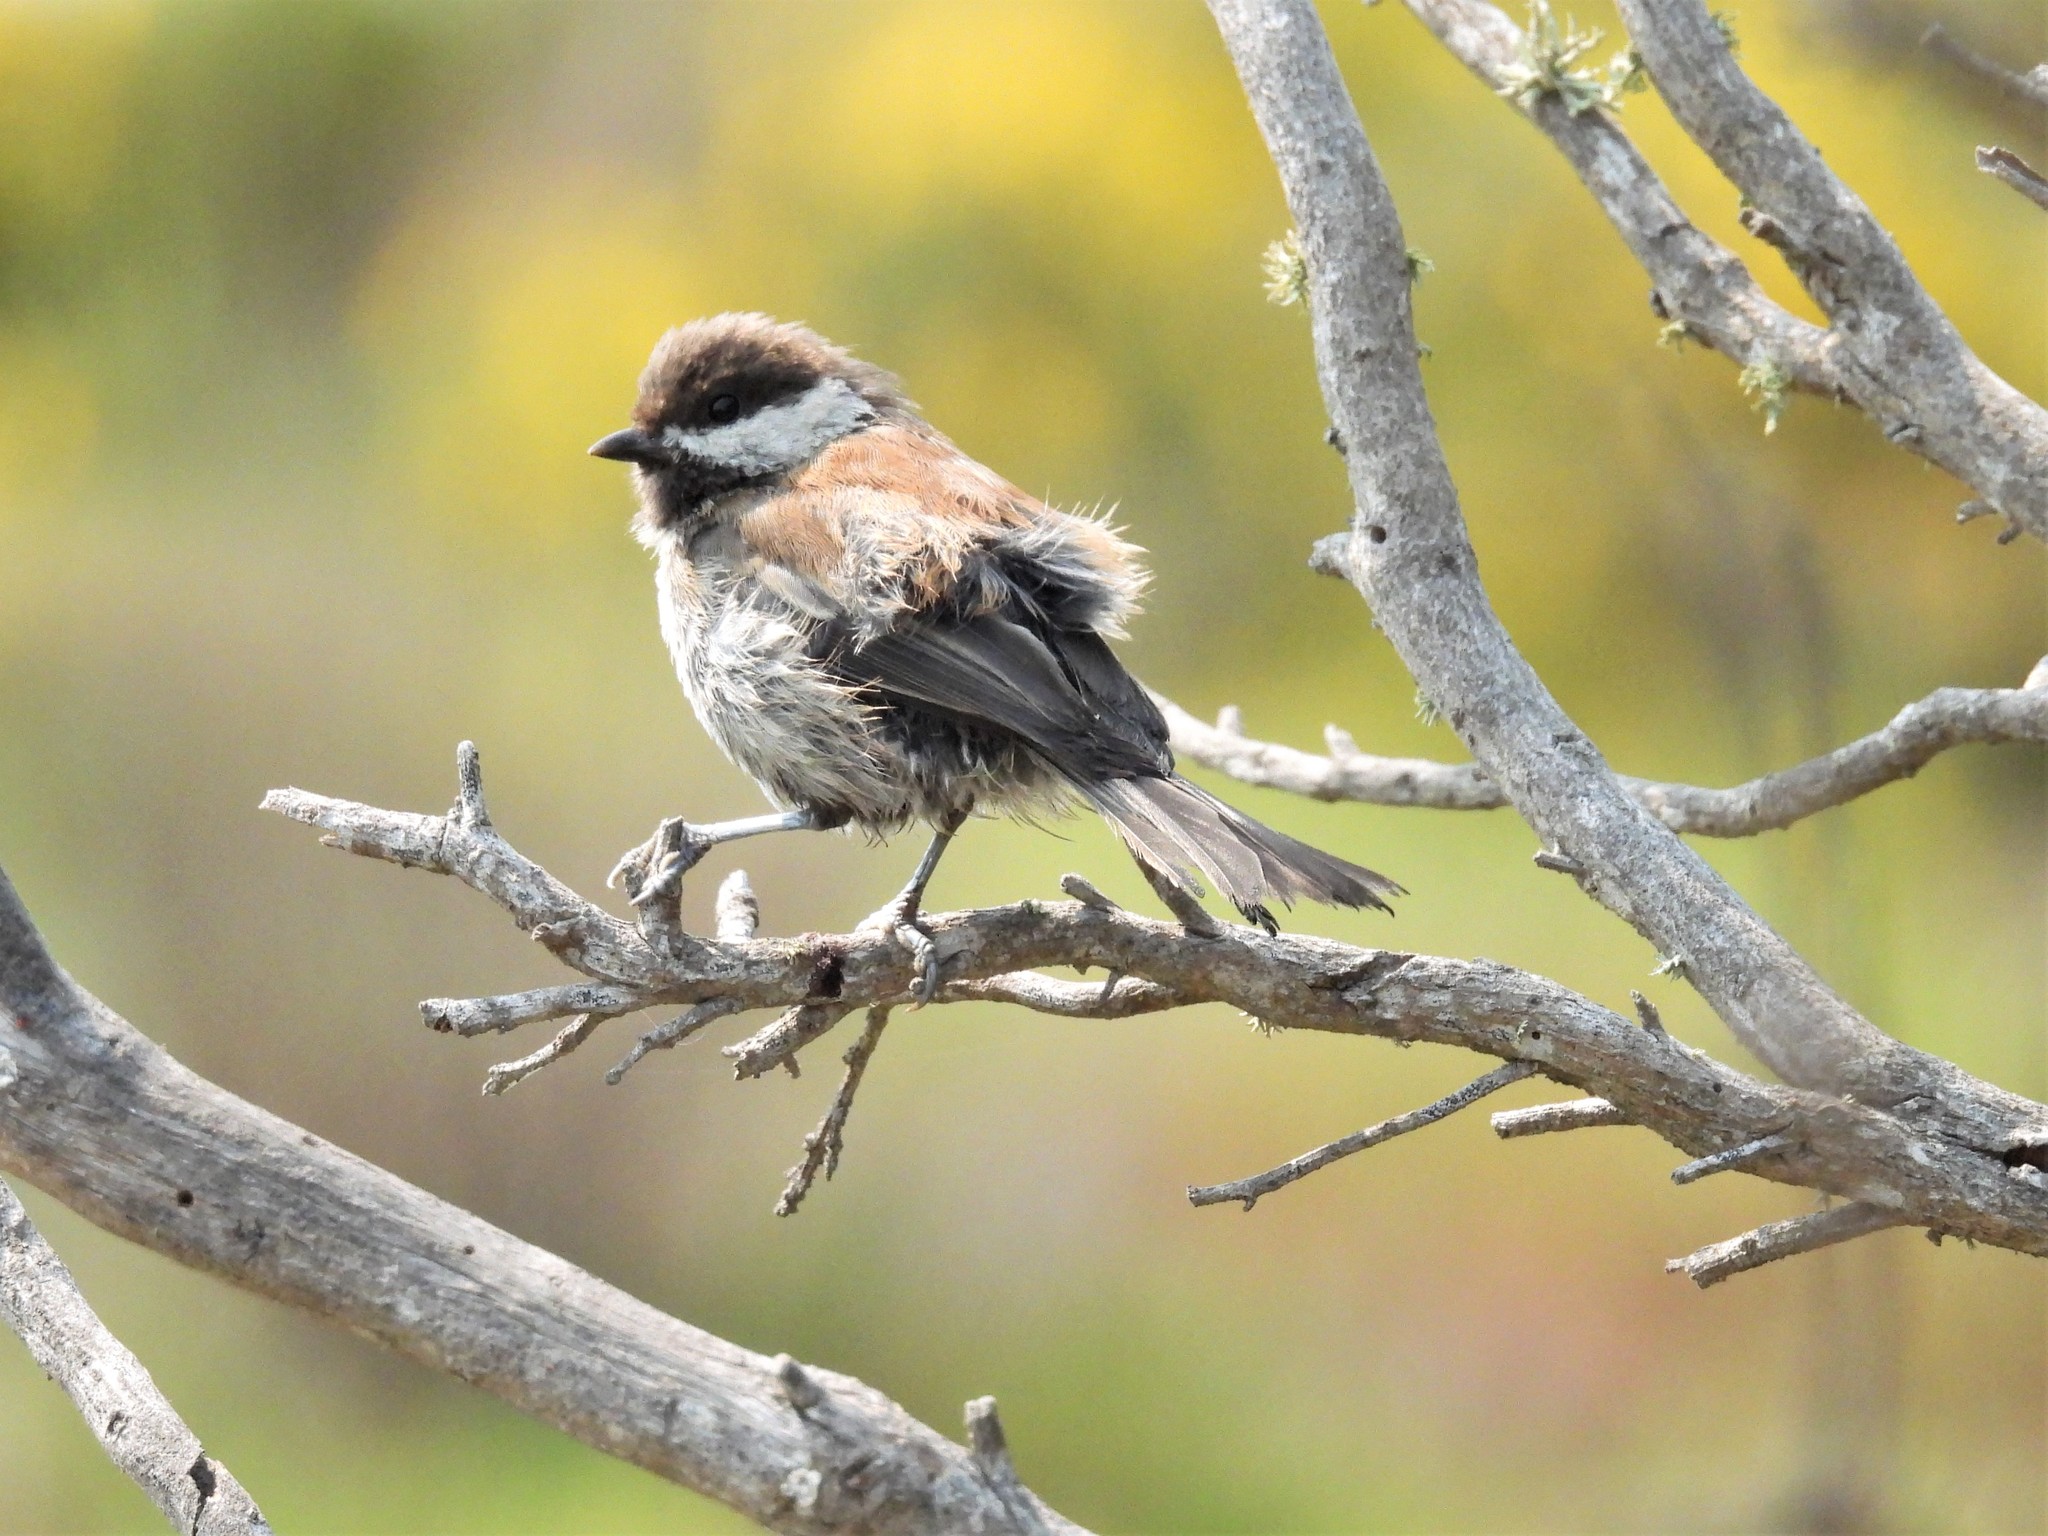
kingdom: Animalia
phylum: Chordata
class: Aves
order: Passeriformes
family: Paridae
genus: Poecile
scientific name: Poecile rufescens
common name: Chestnut-backed chickadee
